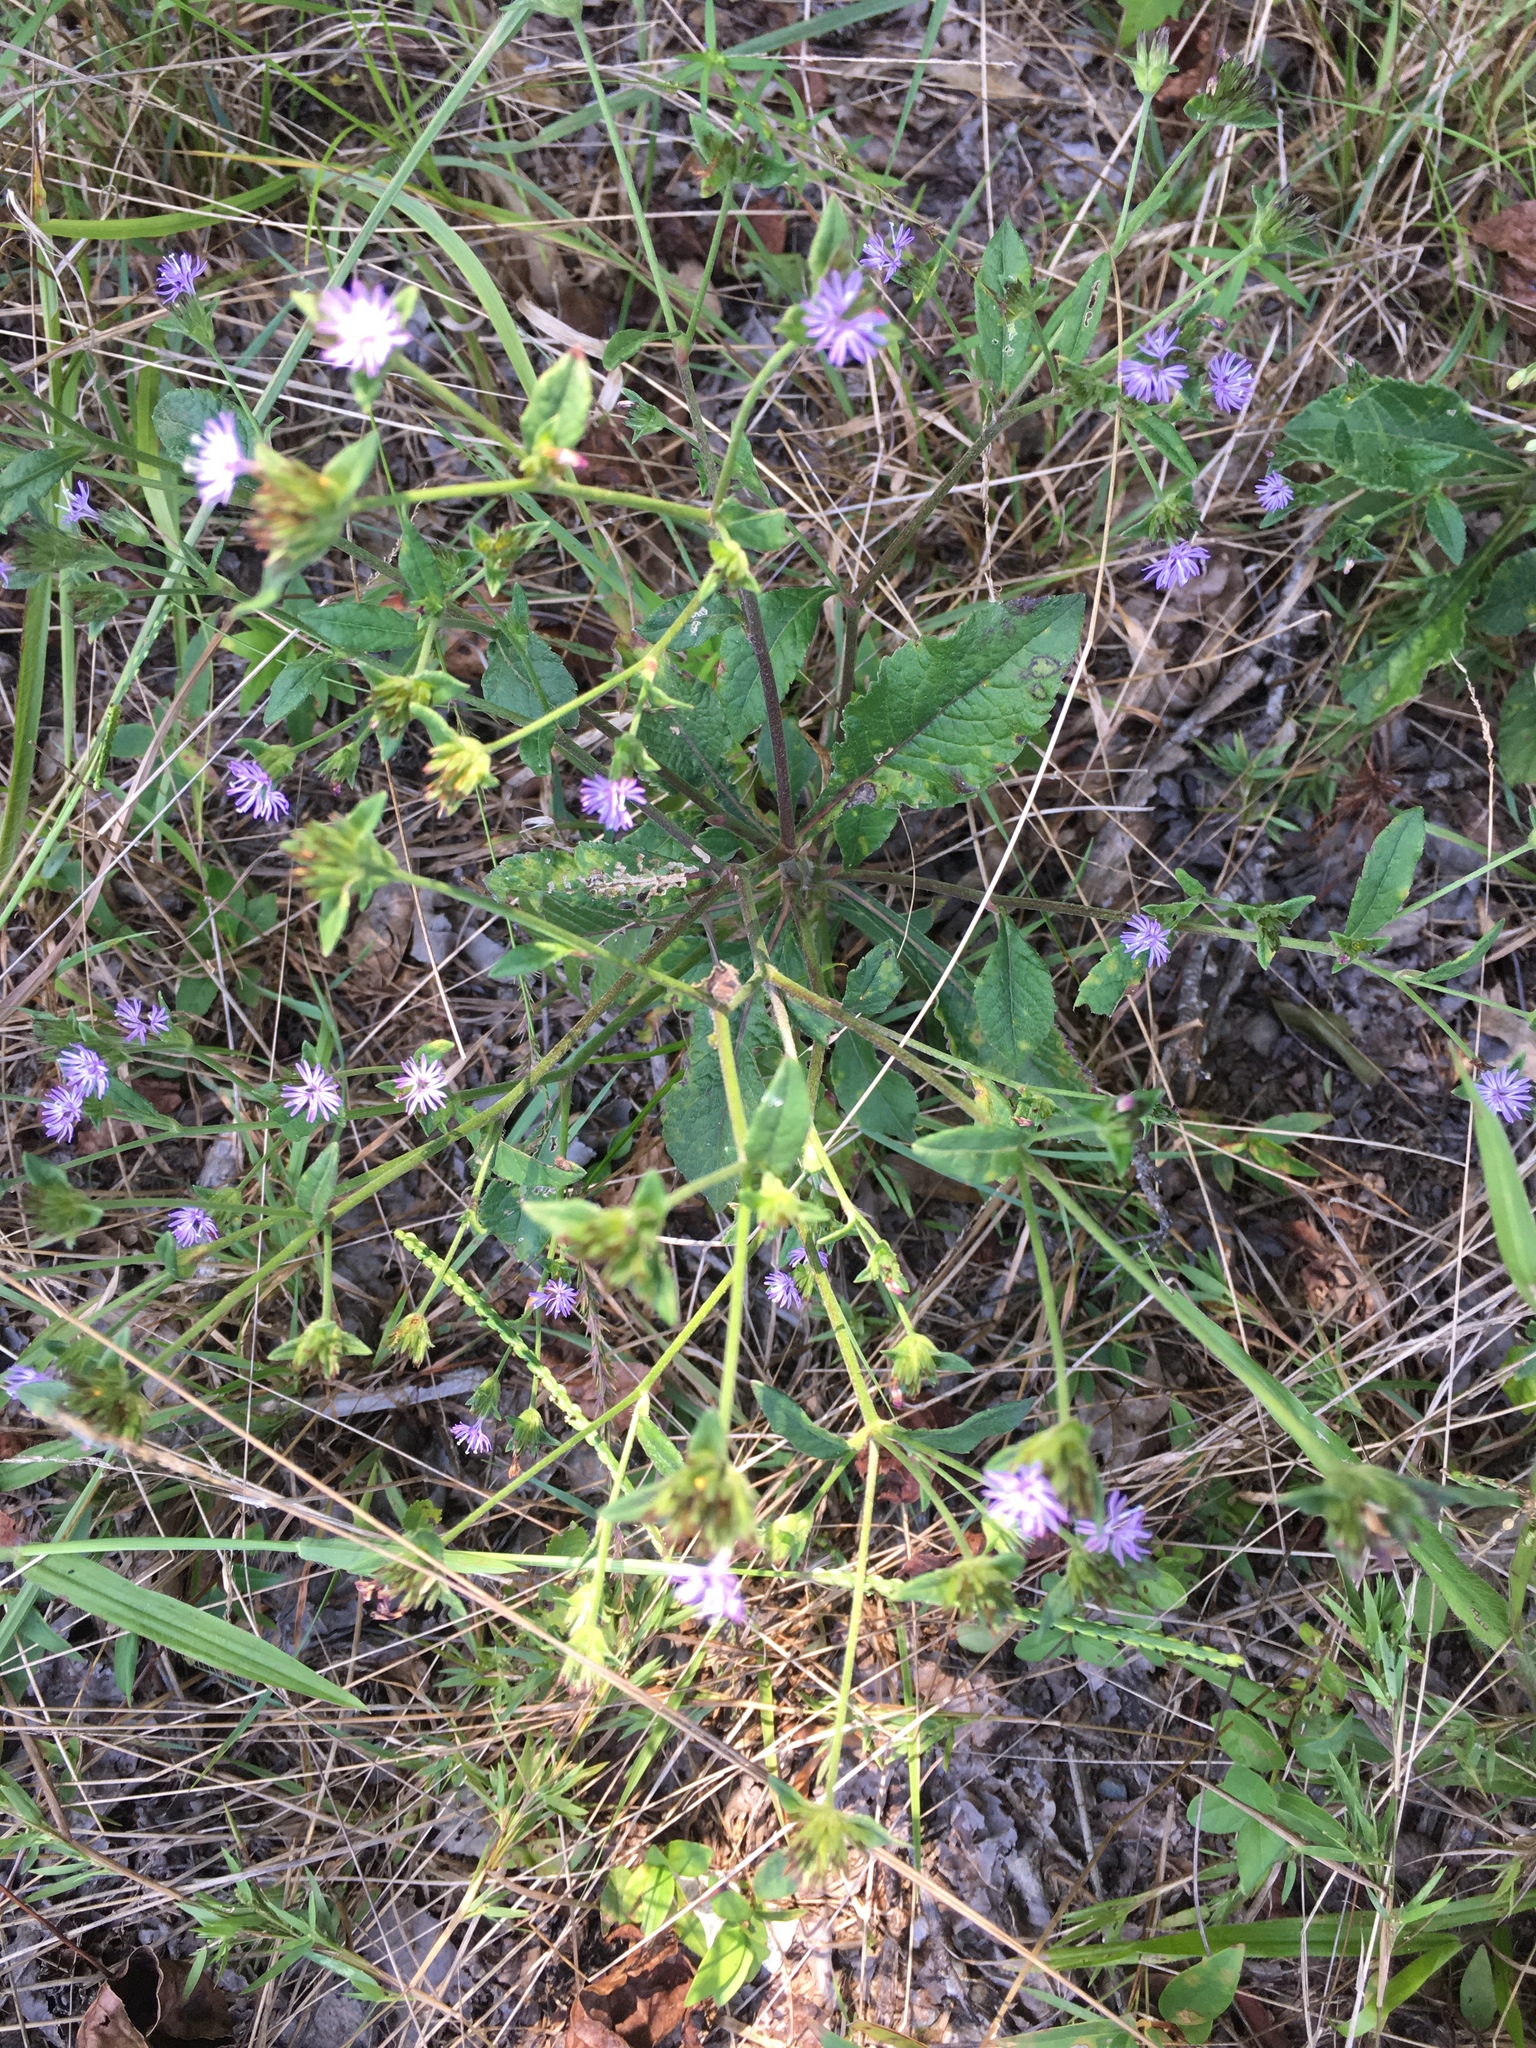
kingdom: Plantae
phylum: Tracheophyta
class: Magnoliopsida
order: Asterales
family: Asteraceae
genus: Elephantopus
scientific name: Elephantopus carolinianus
